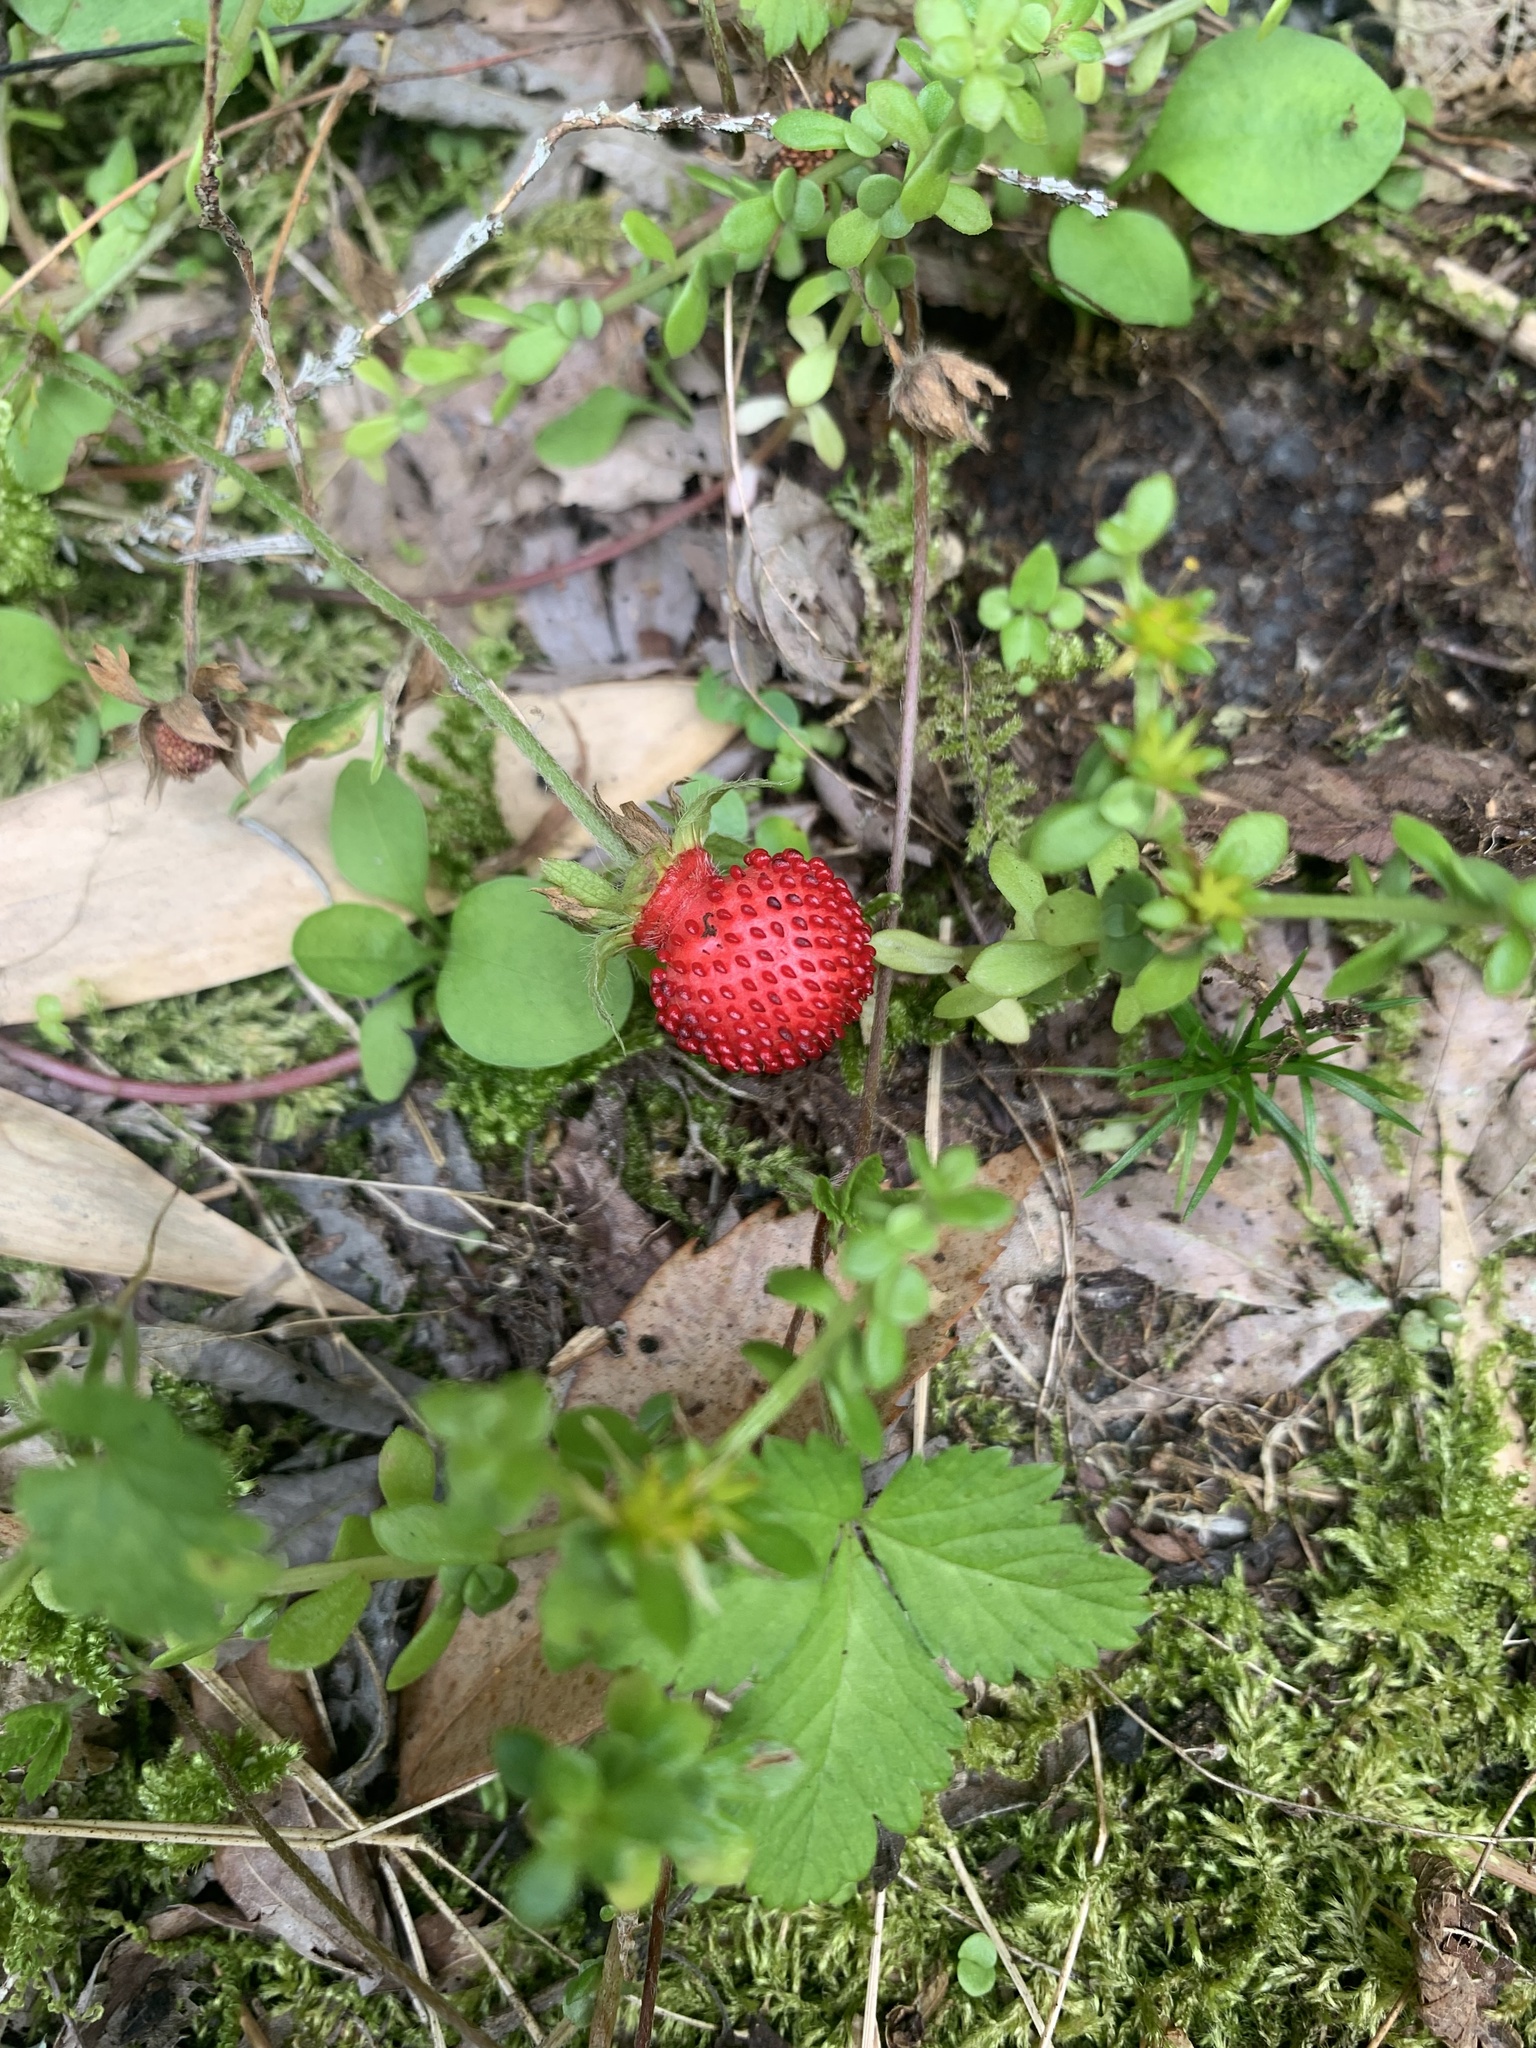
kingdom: Plantae
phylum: Tracheophyta
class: Magnoliopsida
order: Rosales
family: Rosaceae
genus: Potentilla
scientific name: Potentilla indica
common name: Yellow-flowered strawberry
